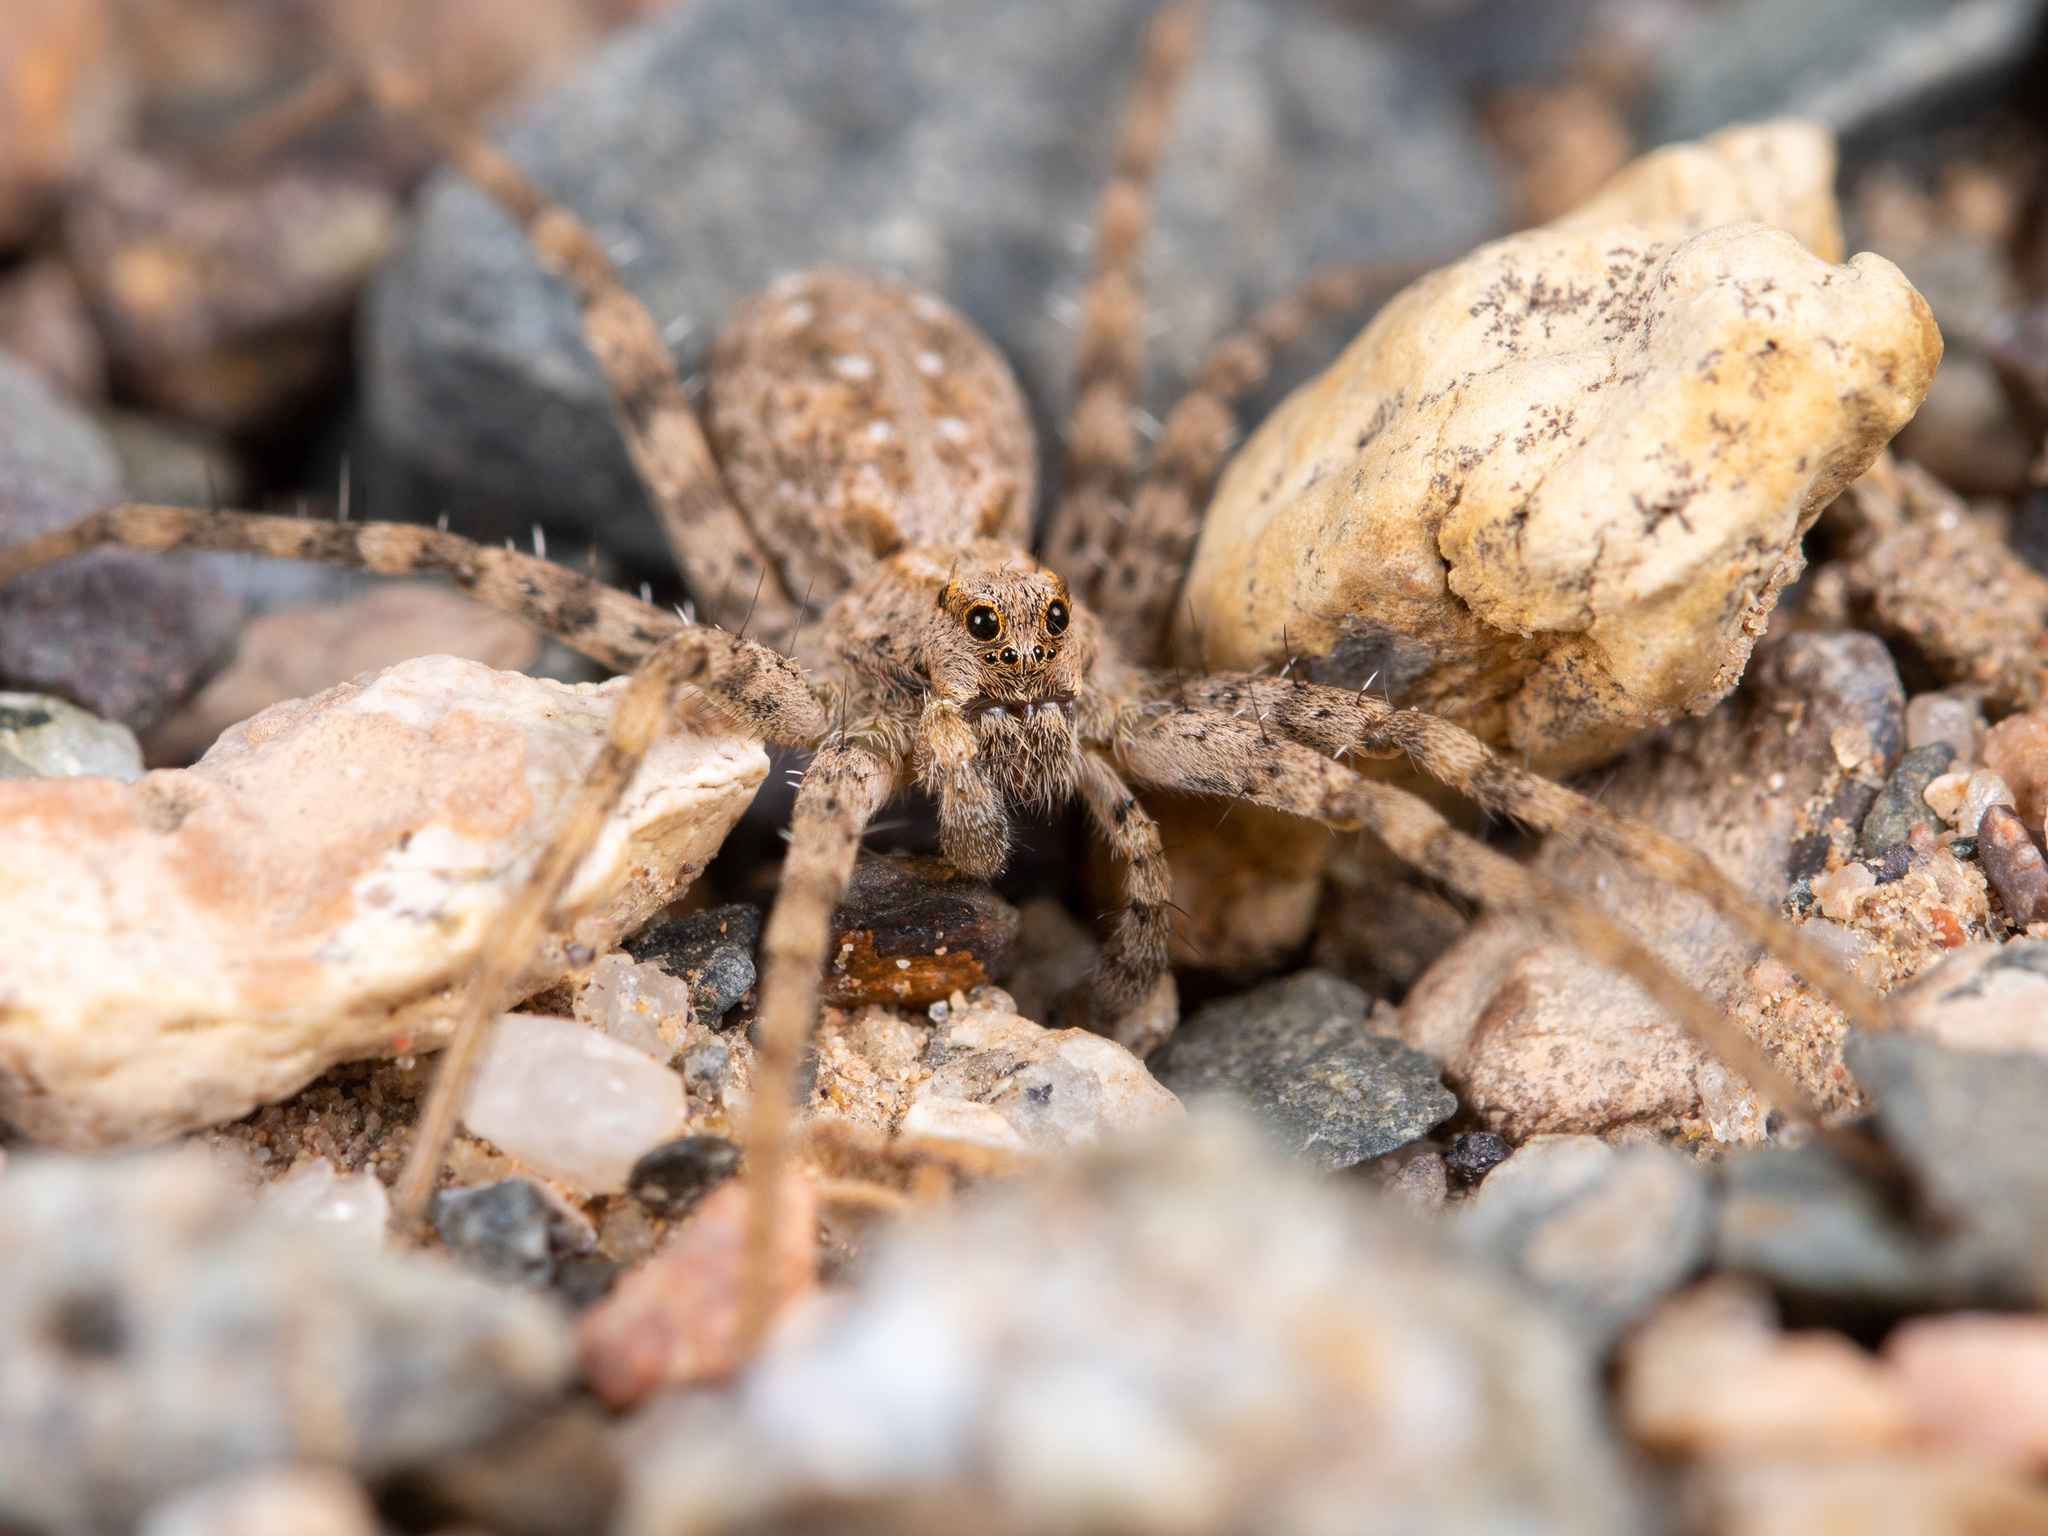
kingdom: Animalia
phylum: Arthropoda
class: Arachnida
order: Araneae
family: Lycosidae
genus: Evippa
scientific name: Evippa sjostedti
